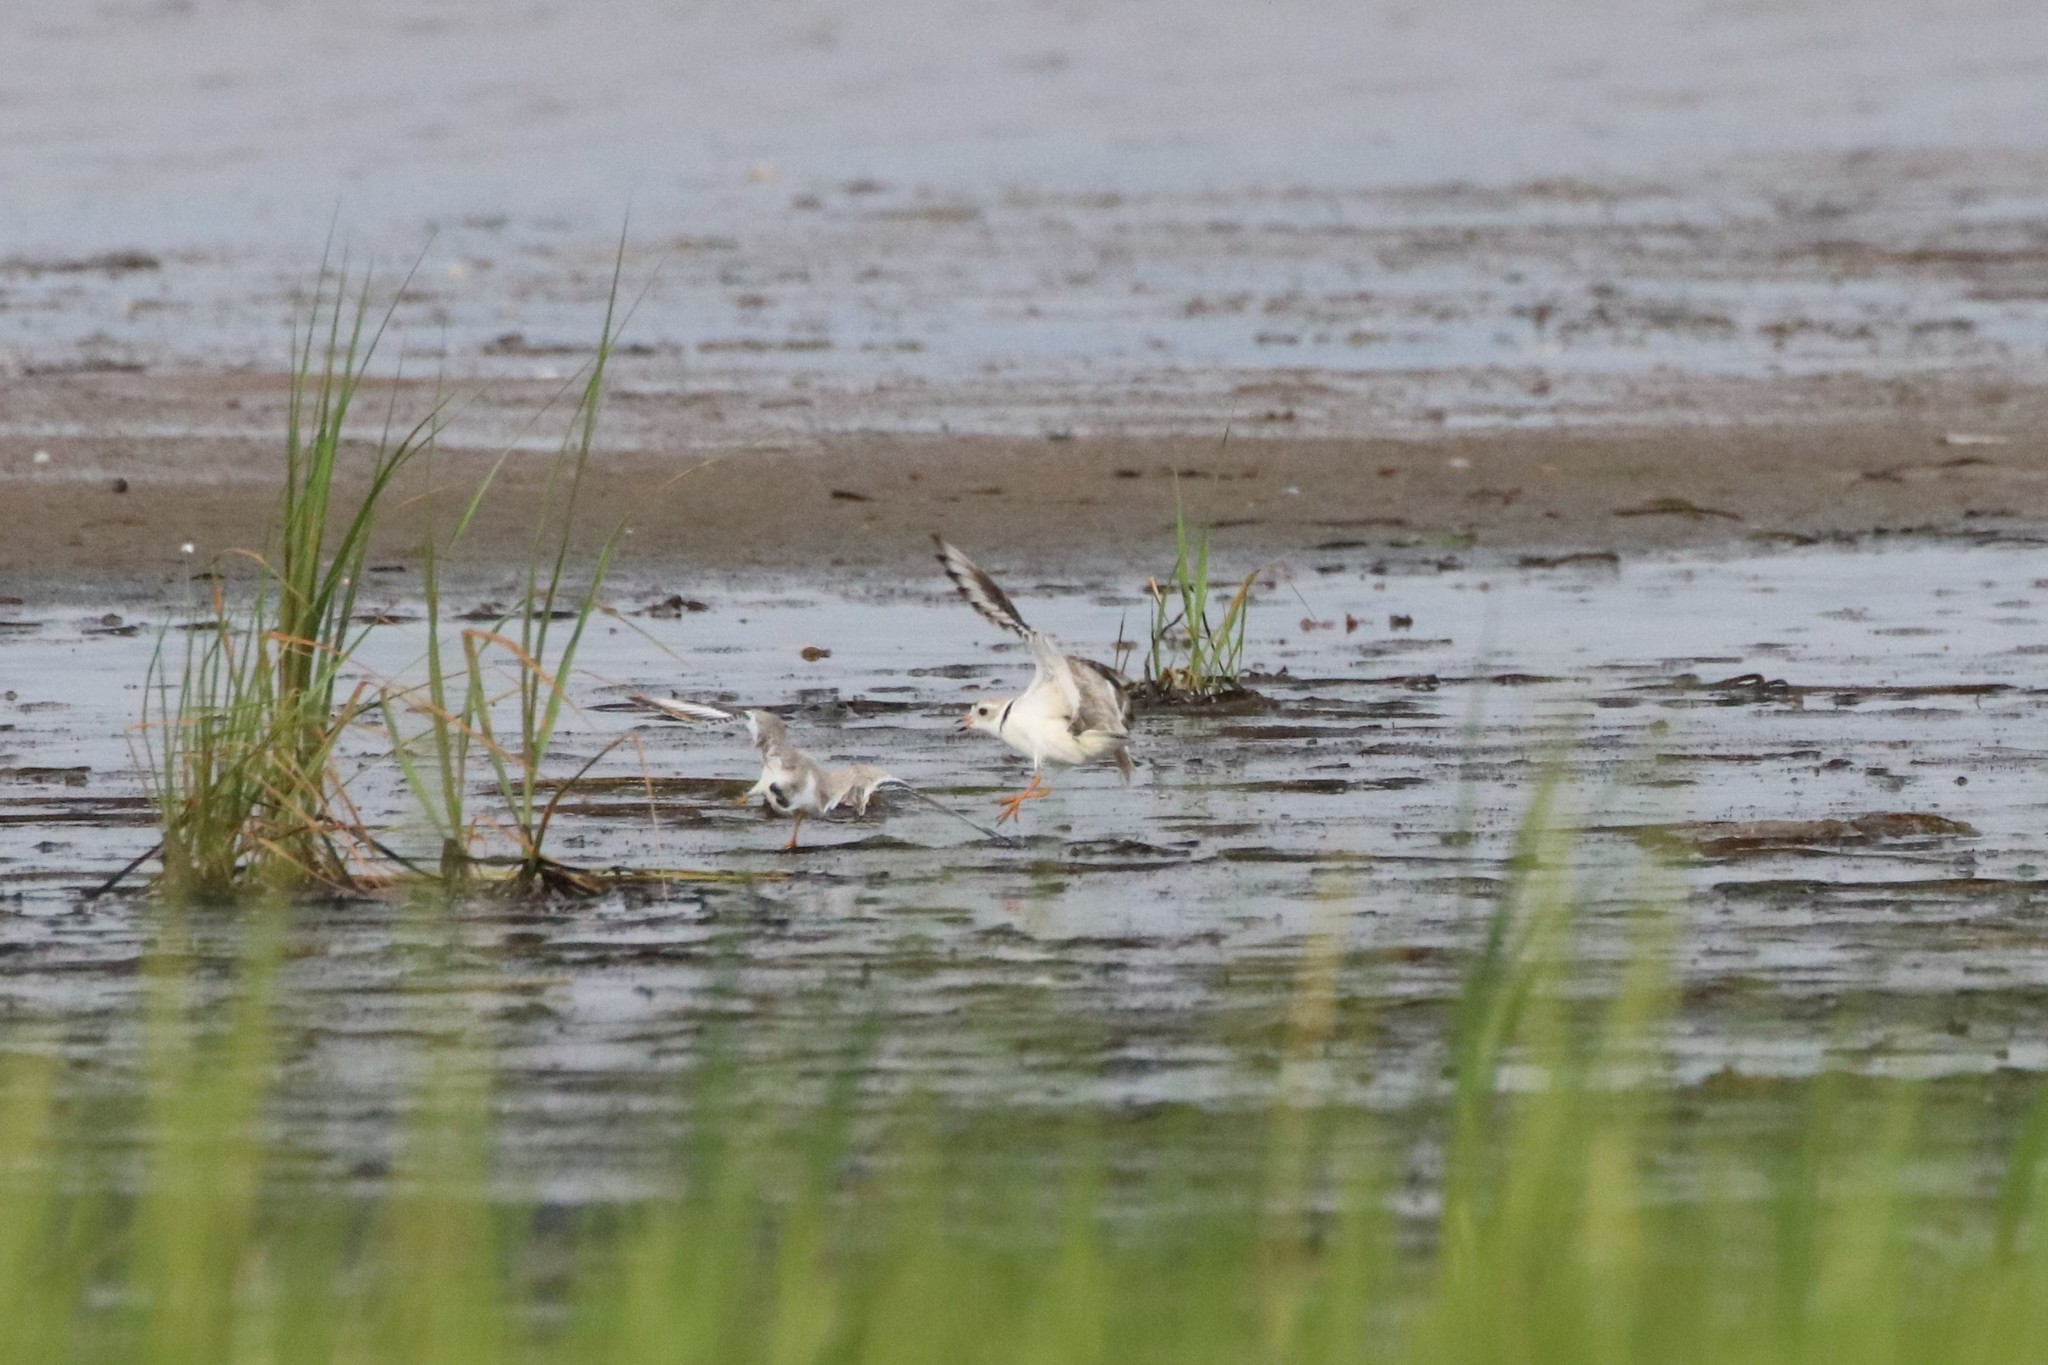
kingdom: Animalia
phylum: Chordata
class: Aves
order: Charadriiformes
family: Charadriidae
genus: Charadrius
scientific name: Charadrius melodus
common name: Piping plover
